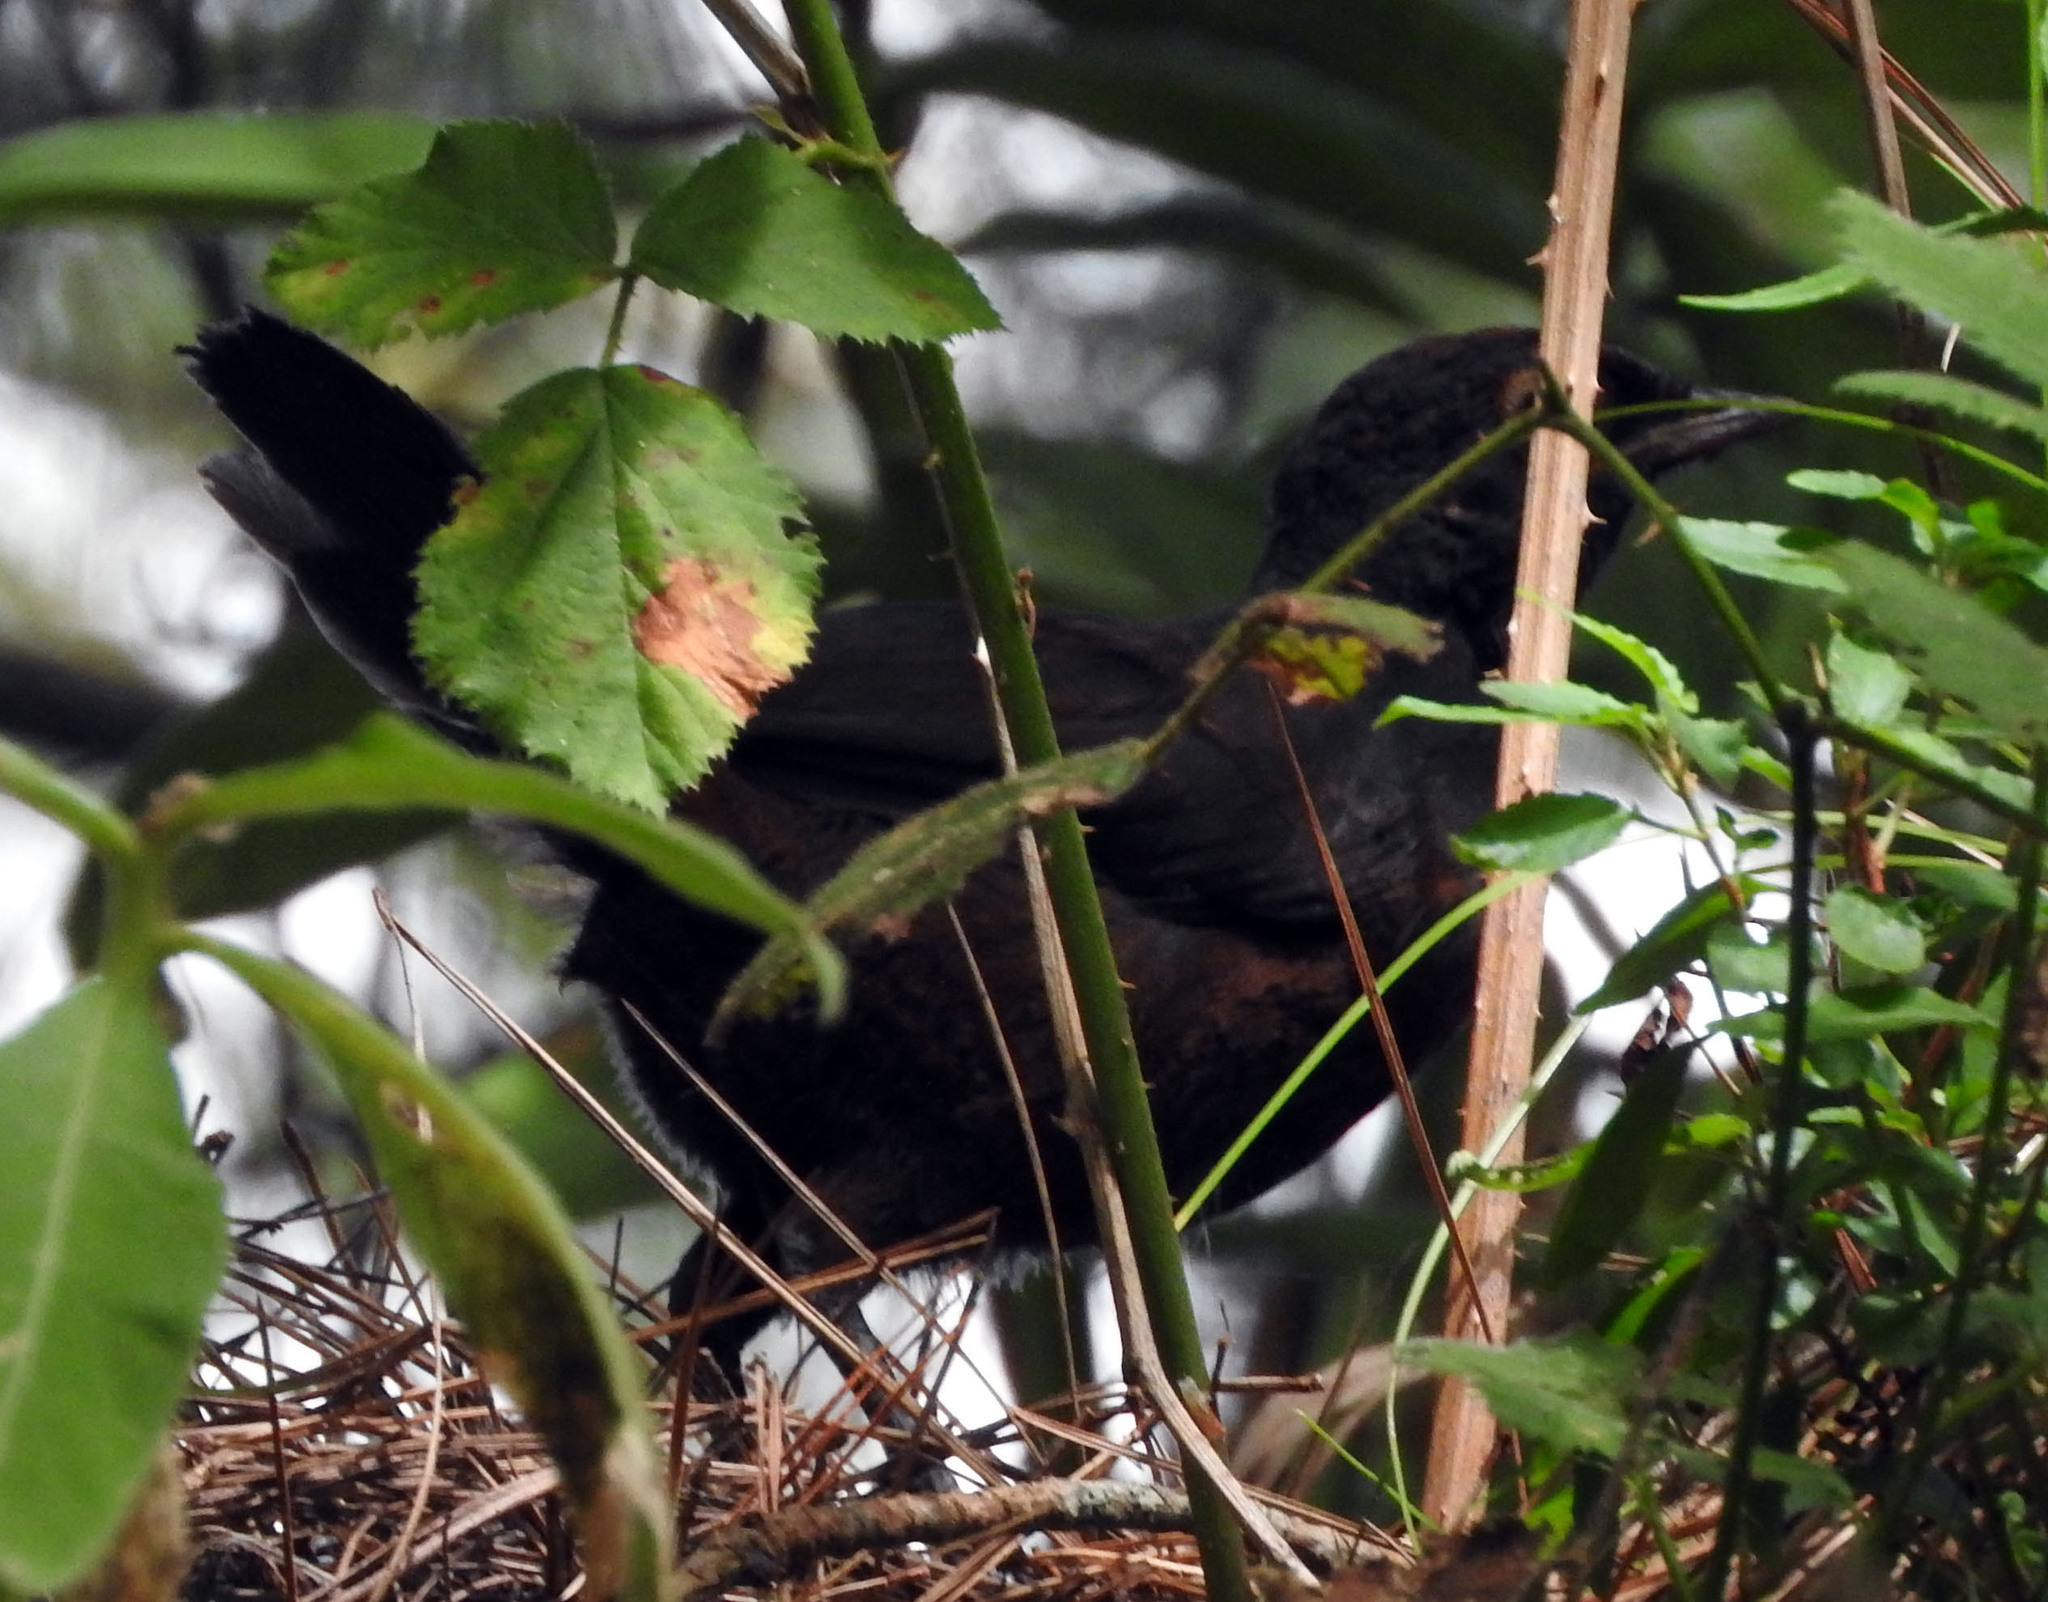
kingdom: Animalia
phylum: Chordata
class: Aves
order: Passeriformes
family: Rhinocryptidae
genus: Pteroptochos
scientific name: Pteroptochos tarnii
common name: Black-throated huet-huet
